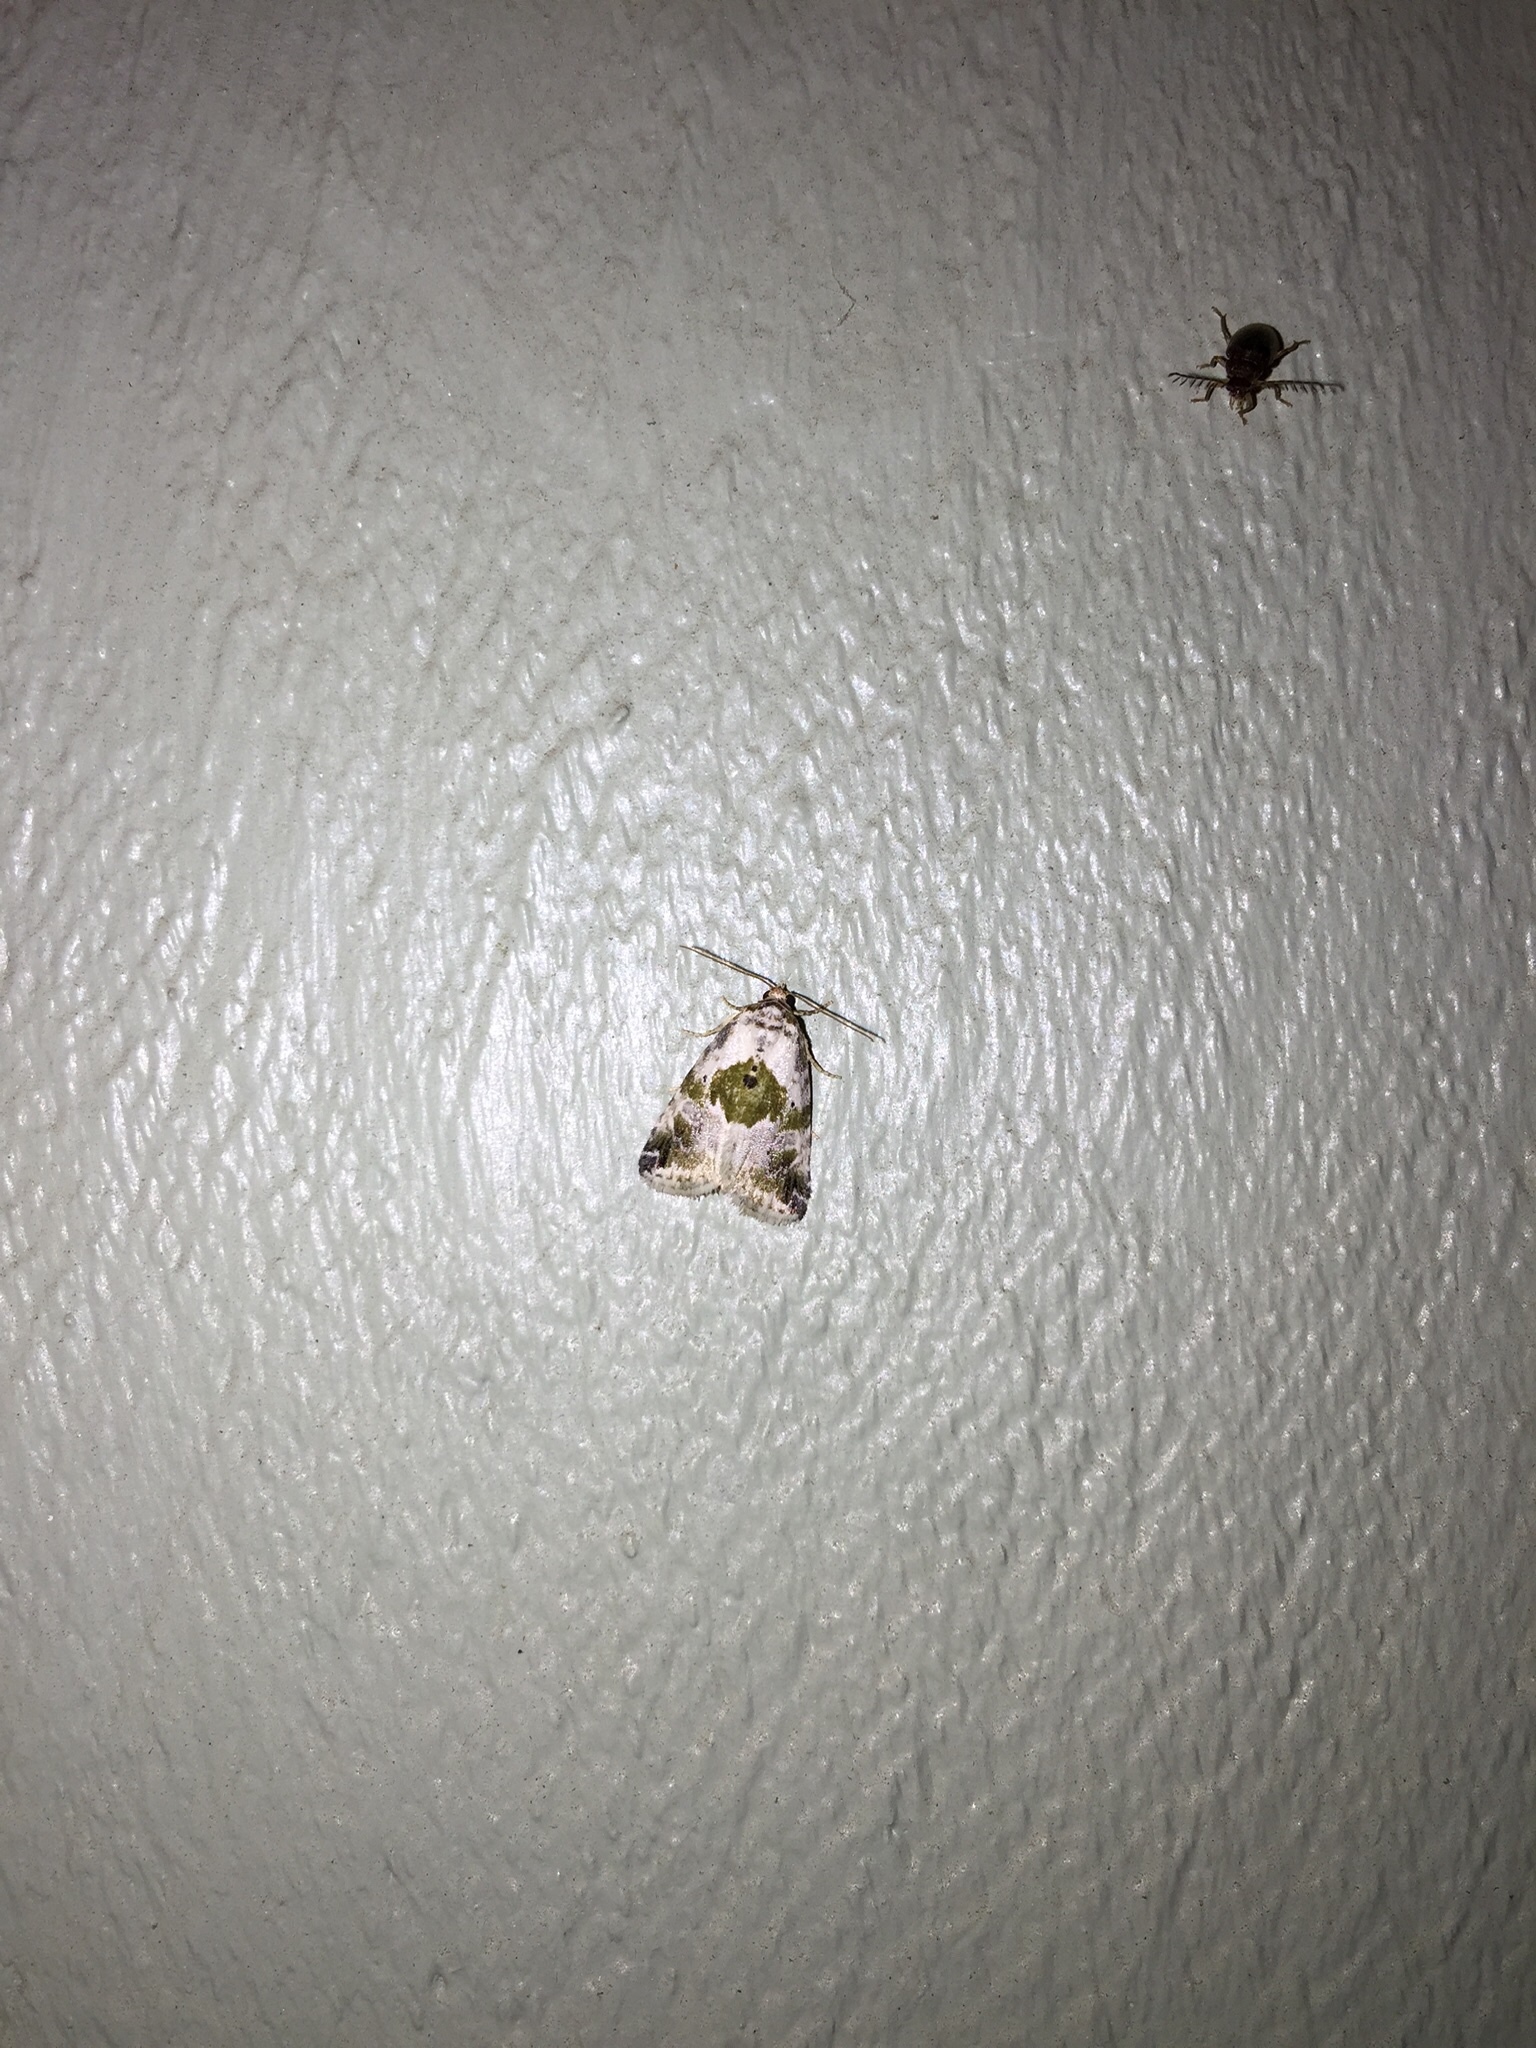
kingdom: Animalia
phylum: Arthropoda
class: Insecta
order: Lepidoptera
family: Noctuidae
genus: Maliattha
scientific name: Maliattha synochitis
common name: Black-dotted glyph
